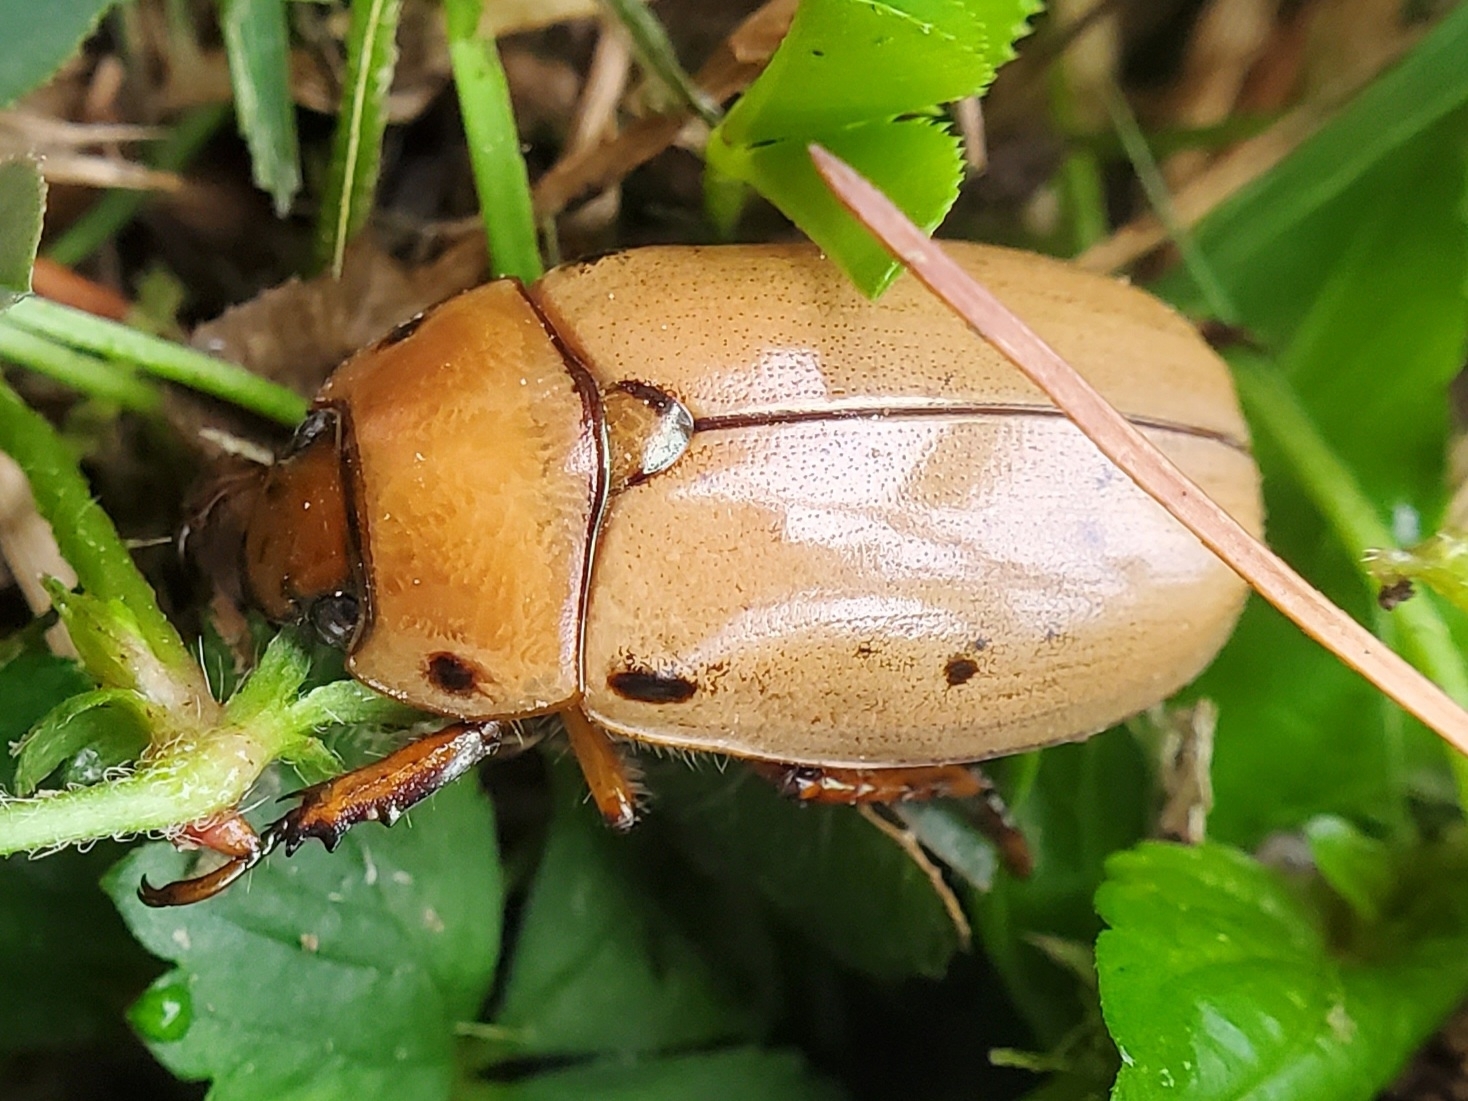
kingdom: Animalia
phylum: Arthropoda
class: Insecta
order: Coleoptera
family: Scarabaeidae
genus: Pelidnota
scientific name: Pelidnota punctata
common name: Grapevine beetle
